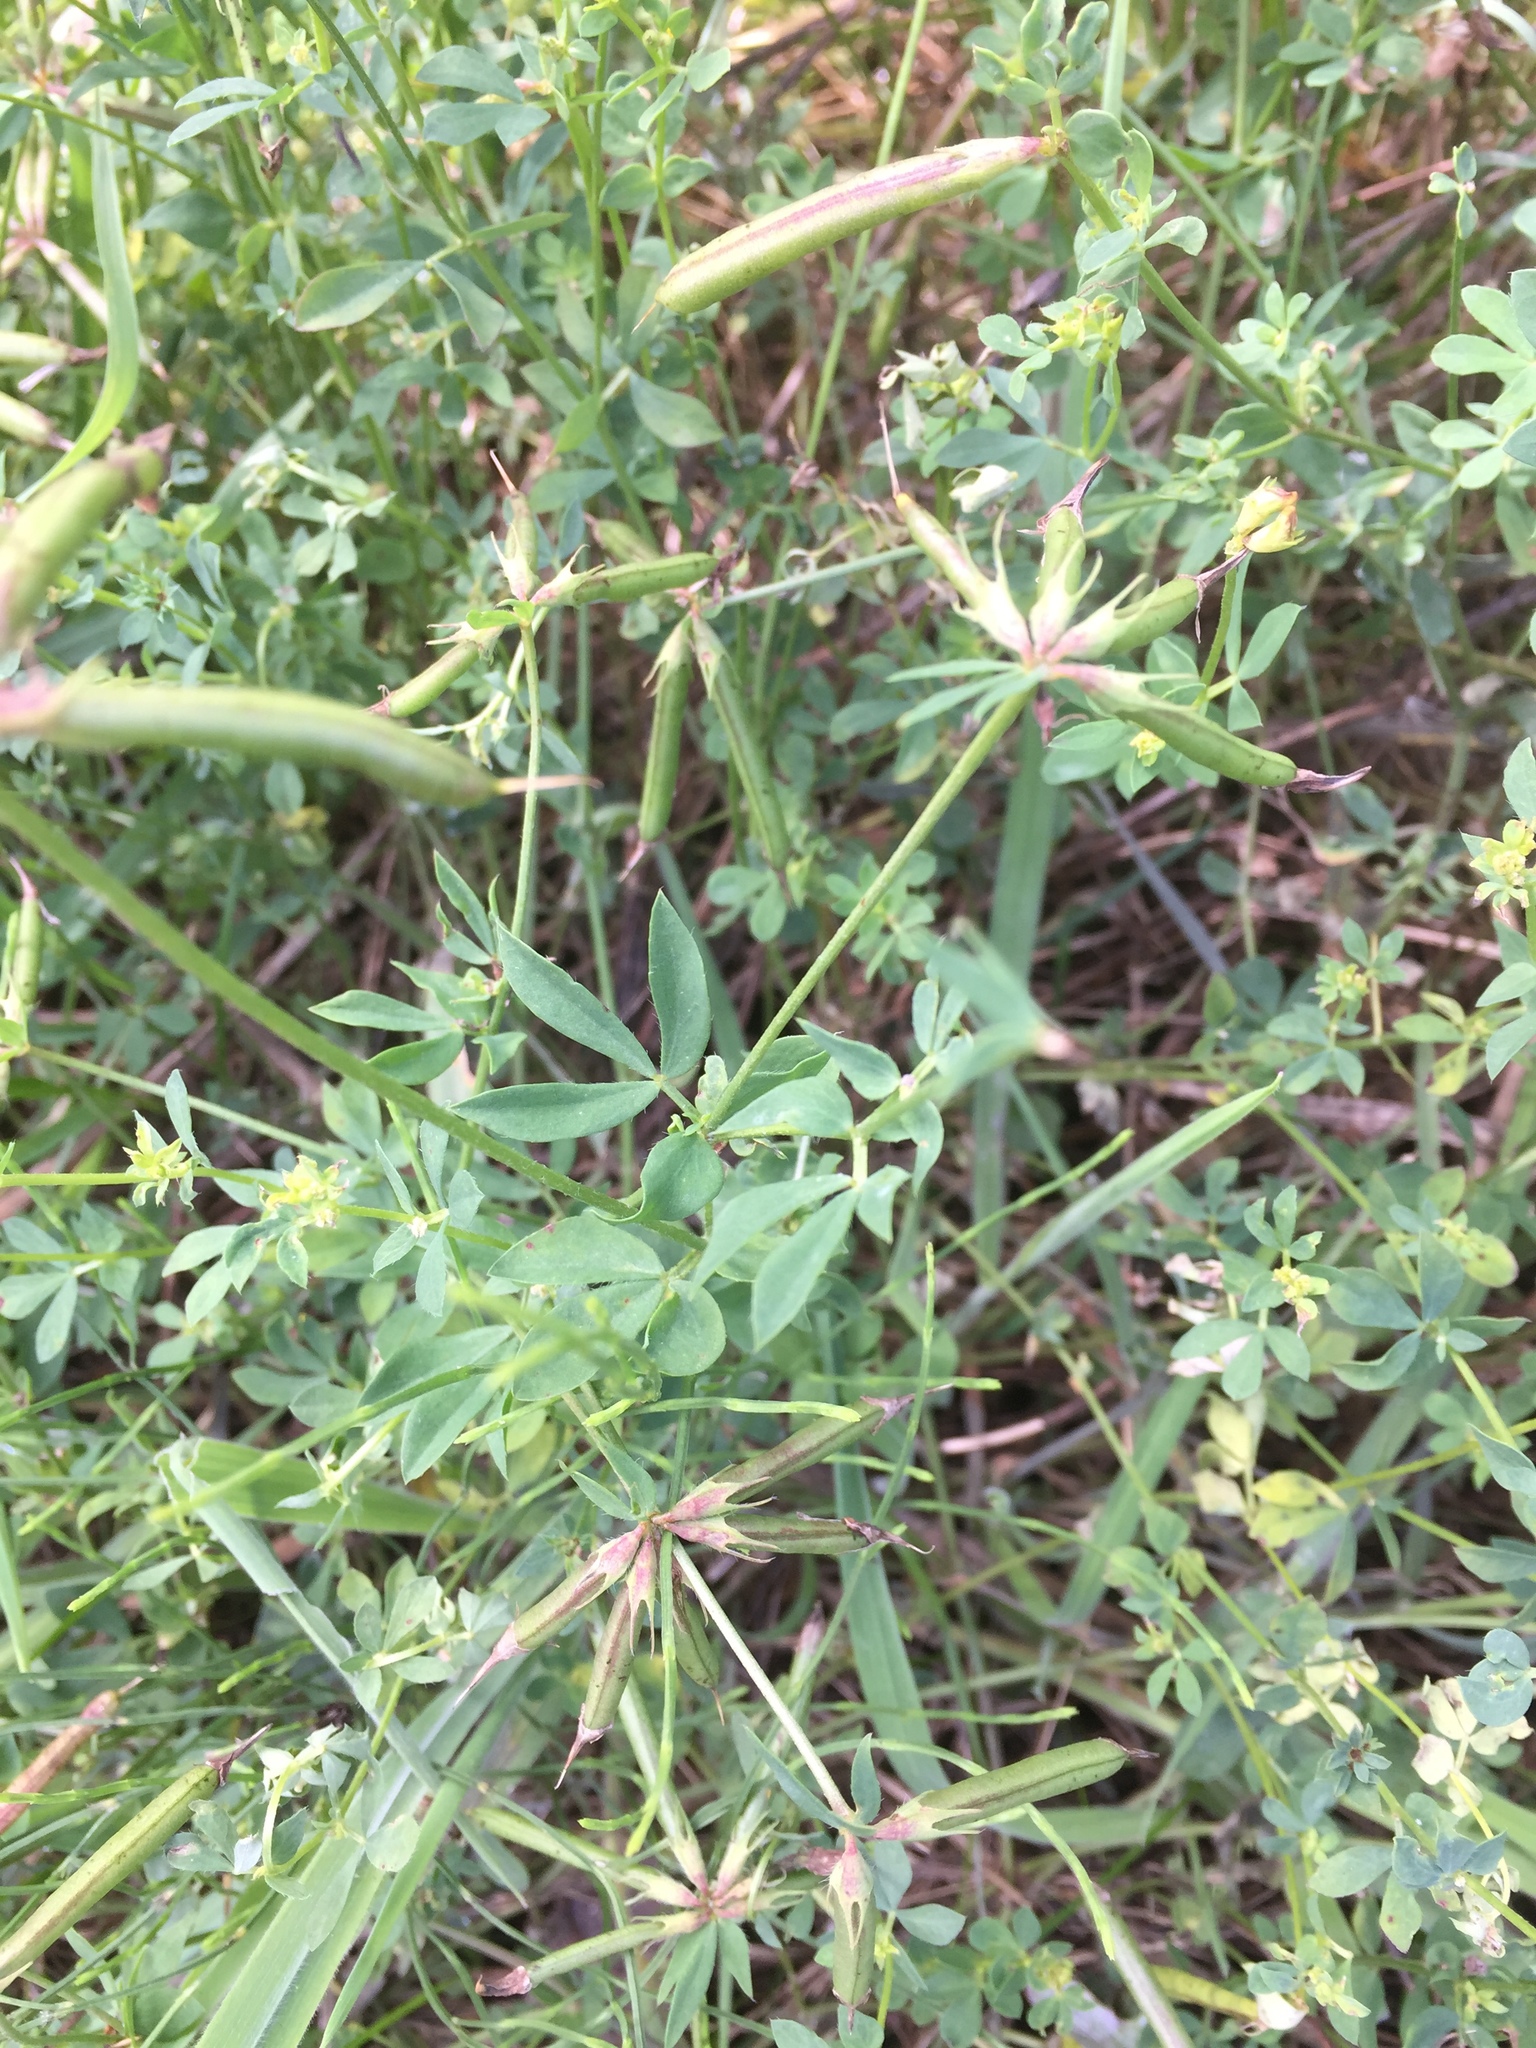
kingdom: Plantae
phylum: Tracheophyta
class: Magnoliopsida
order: Fabales
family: Fabaceae
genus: Lotus
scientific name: Lotus corniculatus
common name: Common bird's-foot-trefoil
